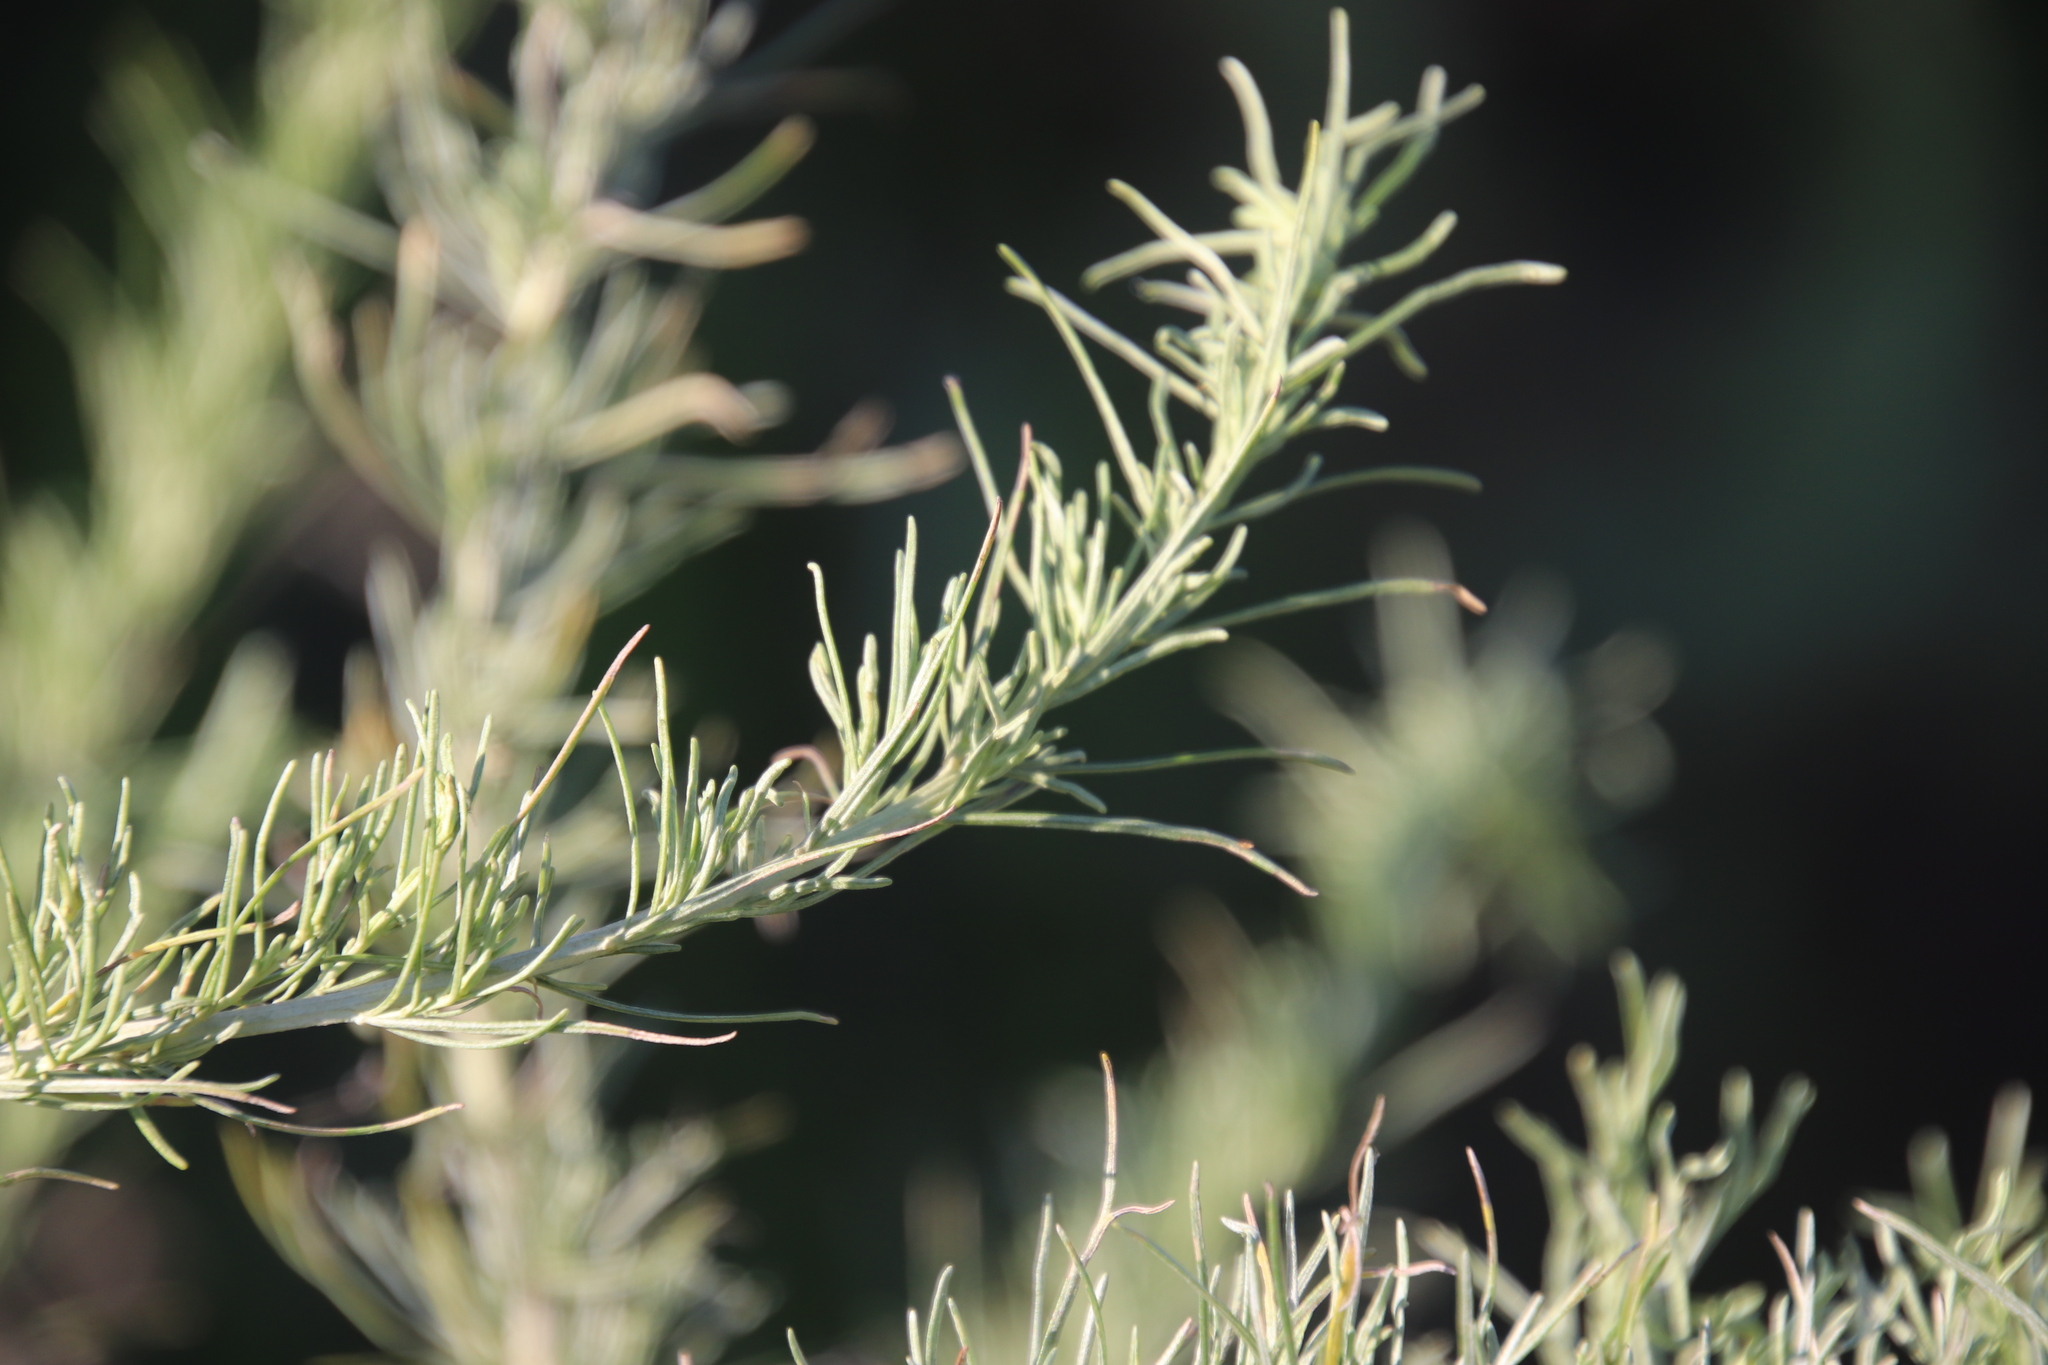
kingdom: Plantae
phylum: Tracheophyta
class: Magnoliopsida
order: Asterales
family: Asteraceae
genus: Artemisia
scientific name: Artemisia californica
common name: California sagebrush
